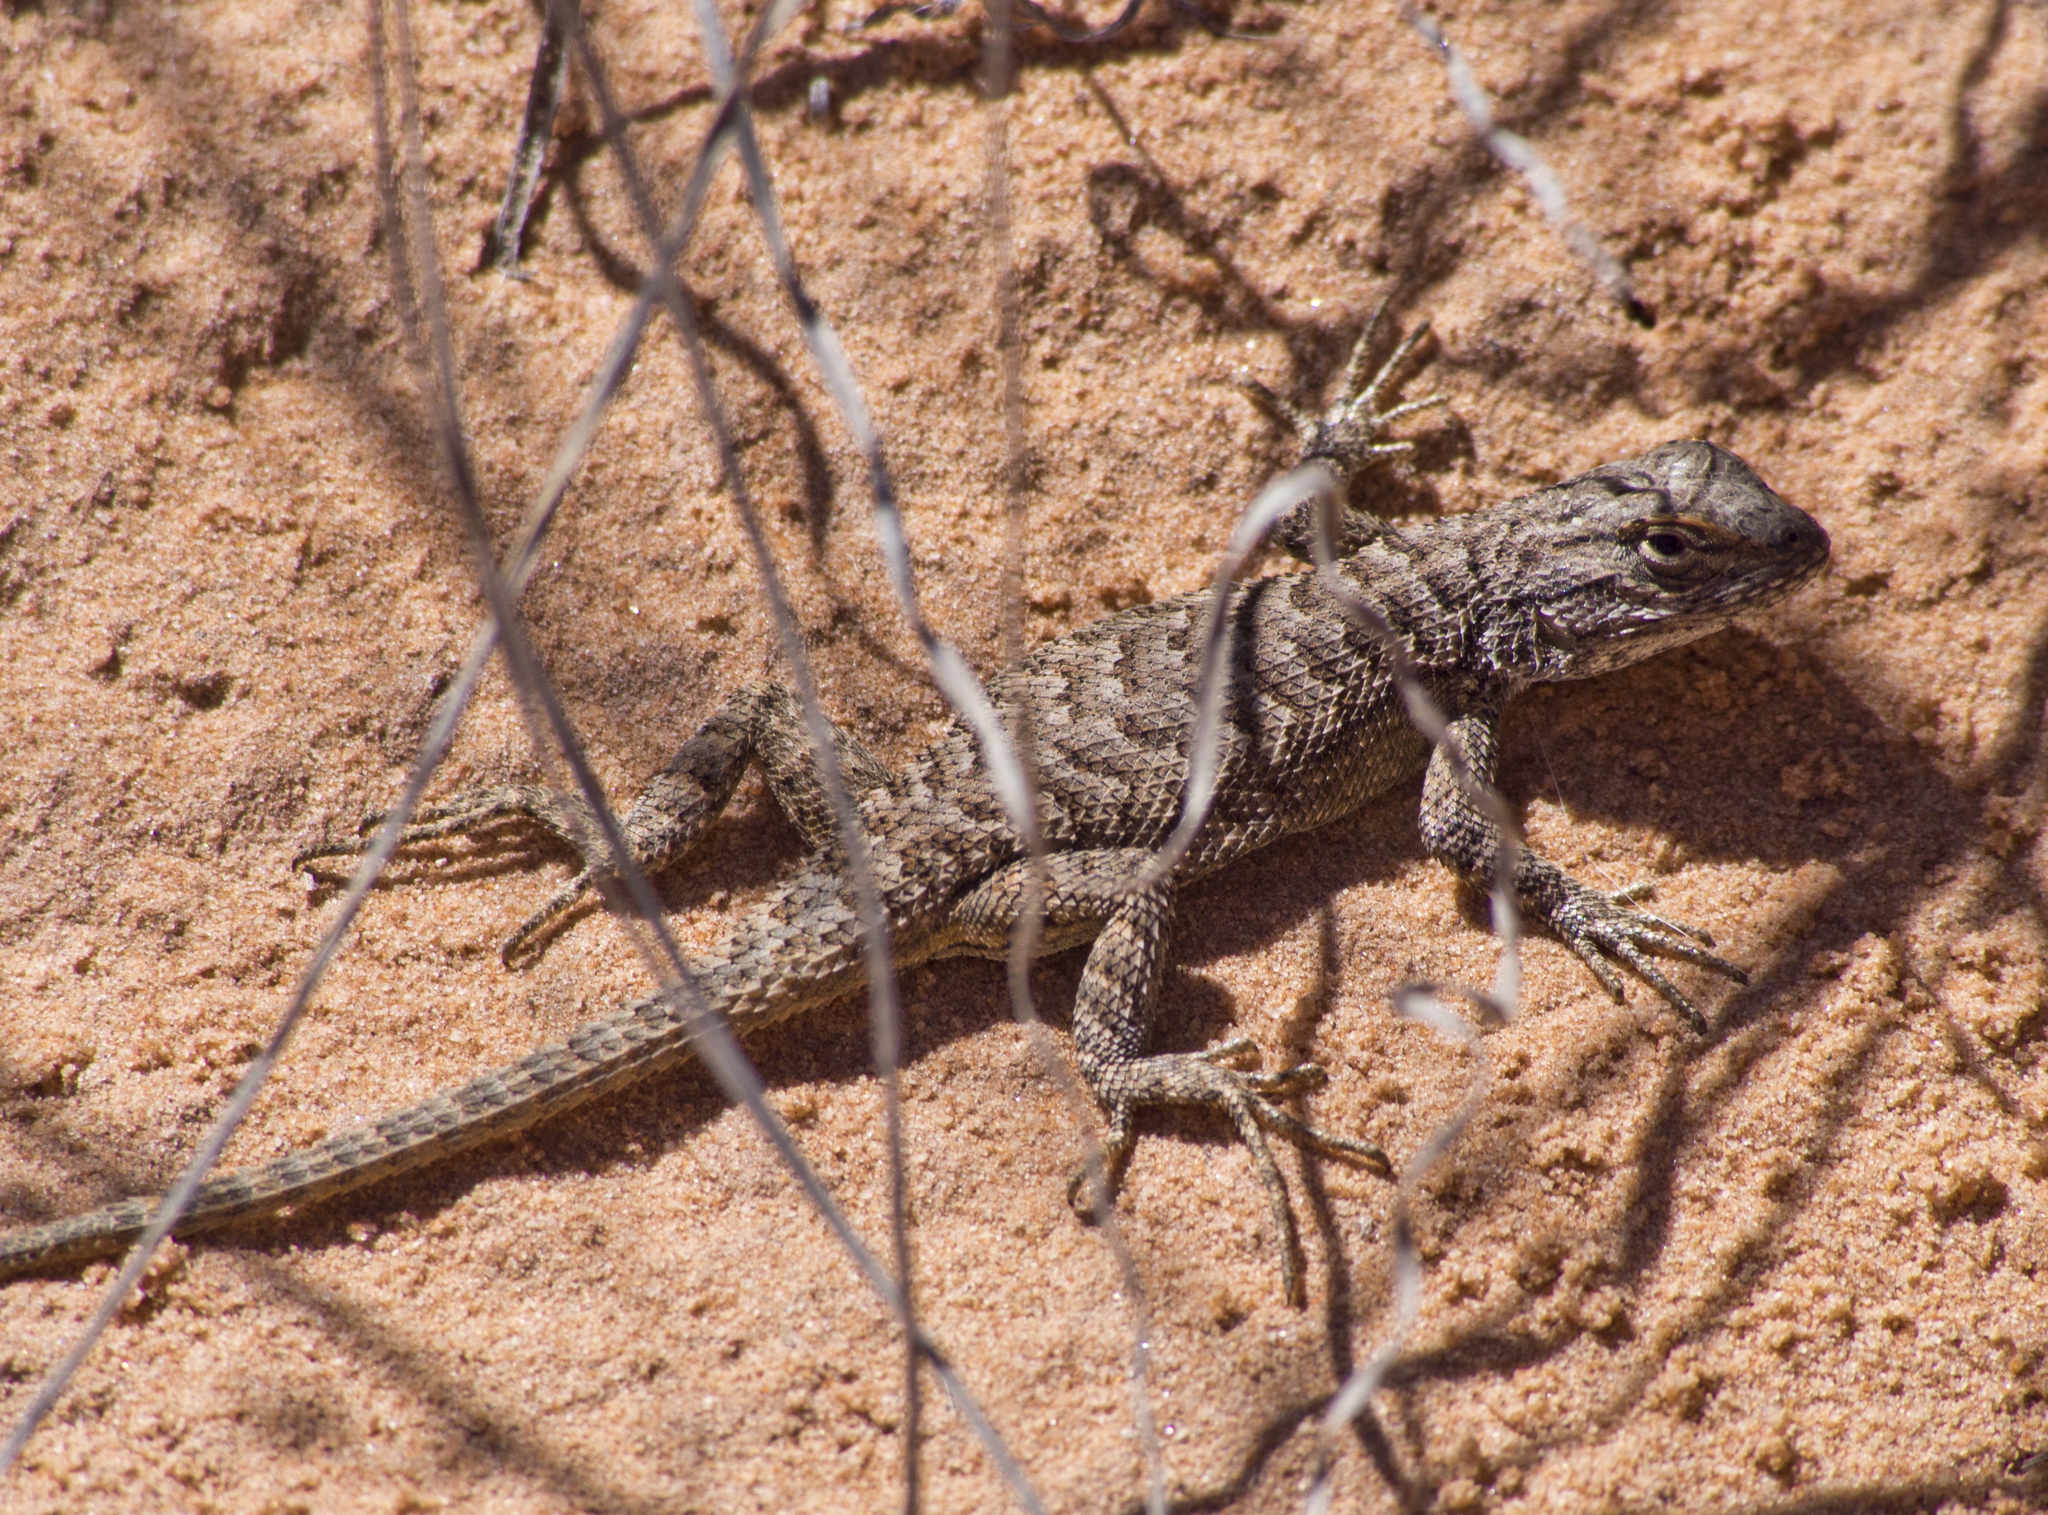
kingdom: Animalia
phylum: Chordata
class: Squamata
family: Phrynosomatidae
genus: Sceloporus
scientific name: Sceloporus tristichus
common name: Plateau fence lizard
